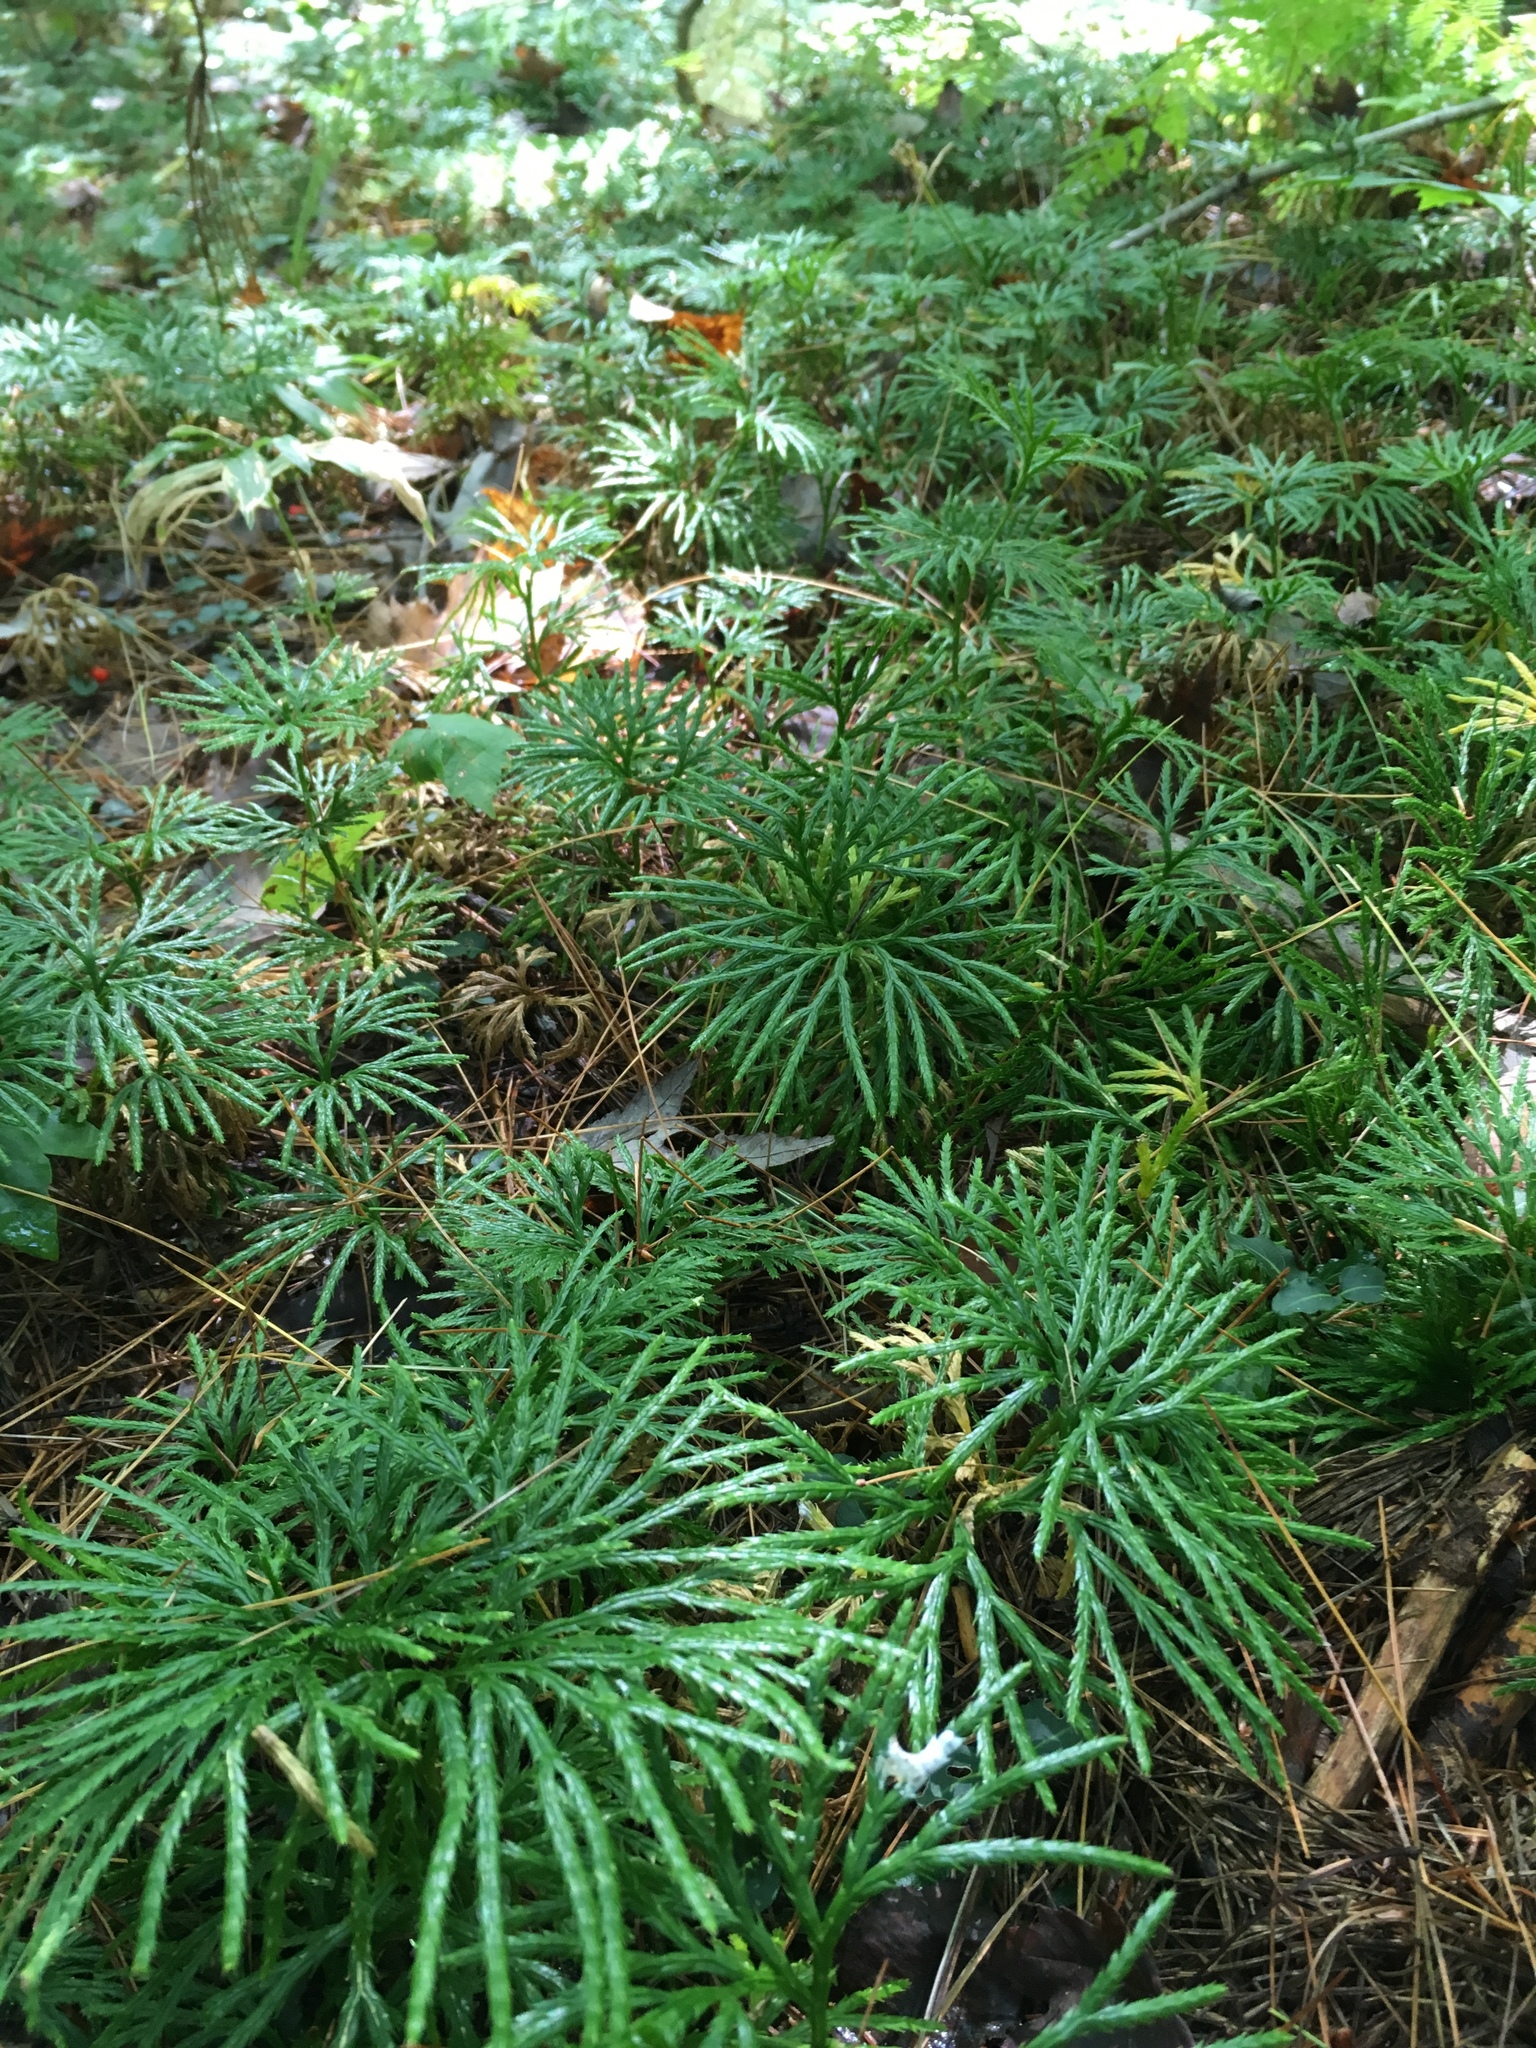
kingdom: Plantae
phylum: Tracheophyta
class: Lycopodiopsida
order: Lycopodiales
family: Lycopodiaceae
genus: Diphasiastrum
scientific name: Diphasiastrum digitatum
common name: Southern running-pine
